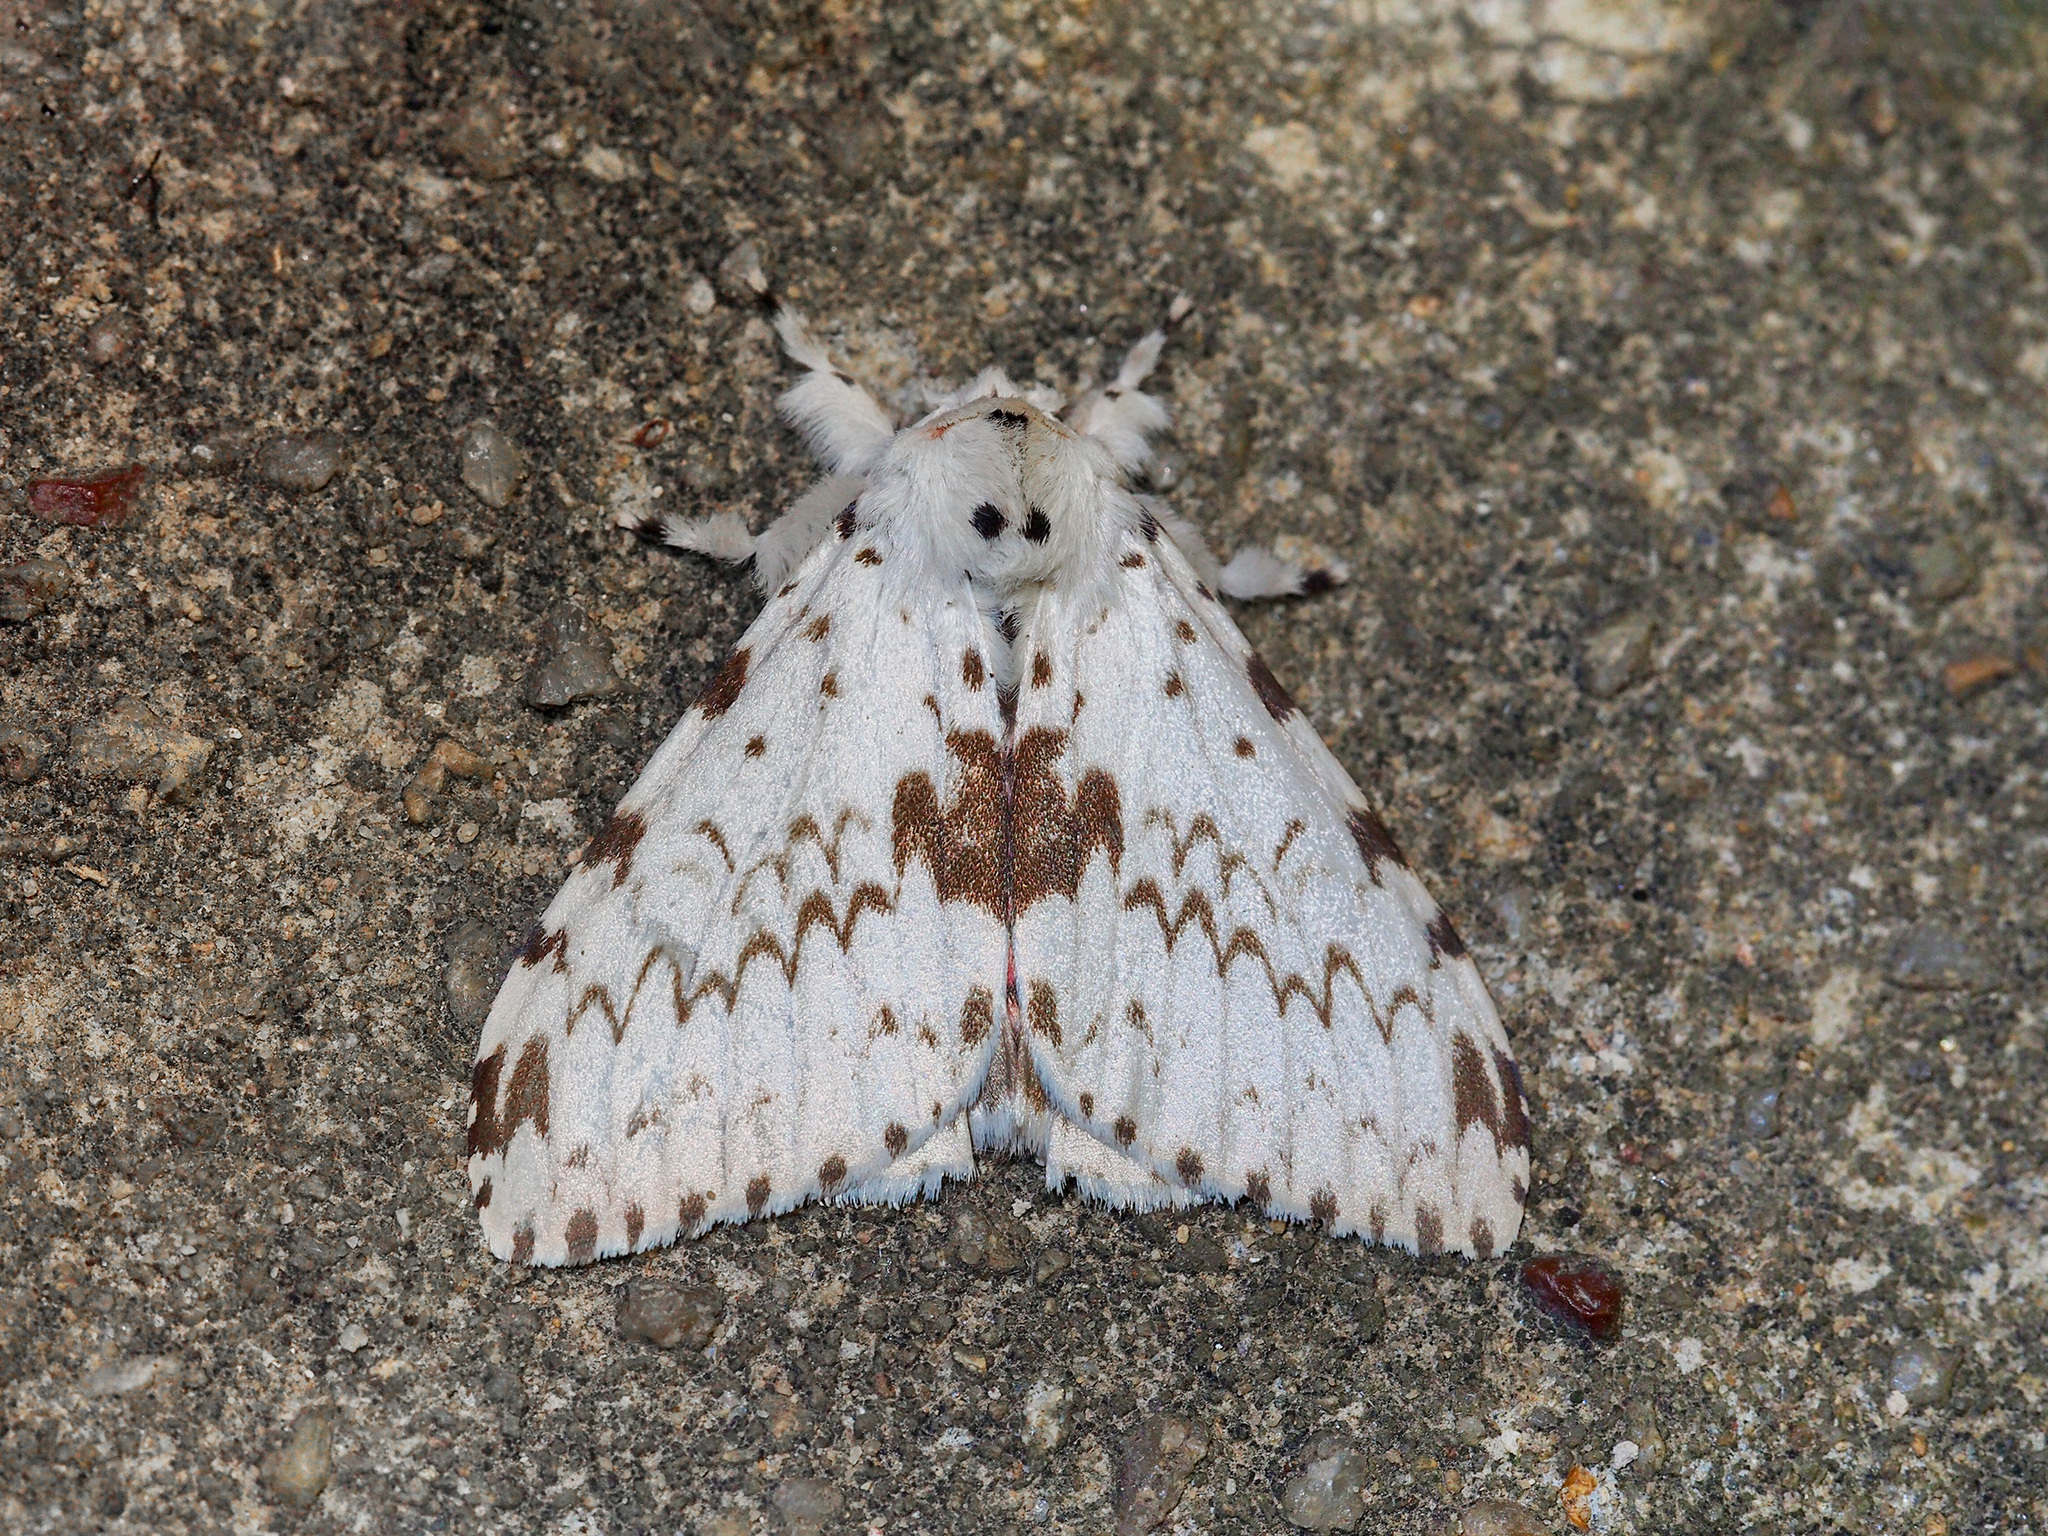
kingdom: Animalia
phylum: Arthropoda
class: Insecta
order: Lepidoptera
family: Erebidae
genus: Lymantria
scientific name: Lymantria brunneiplaga
